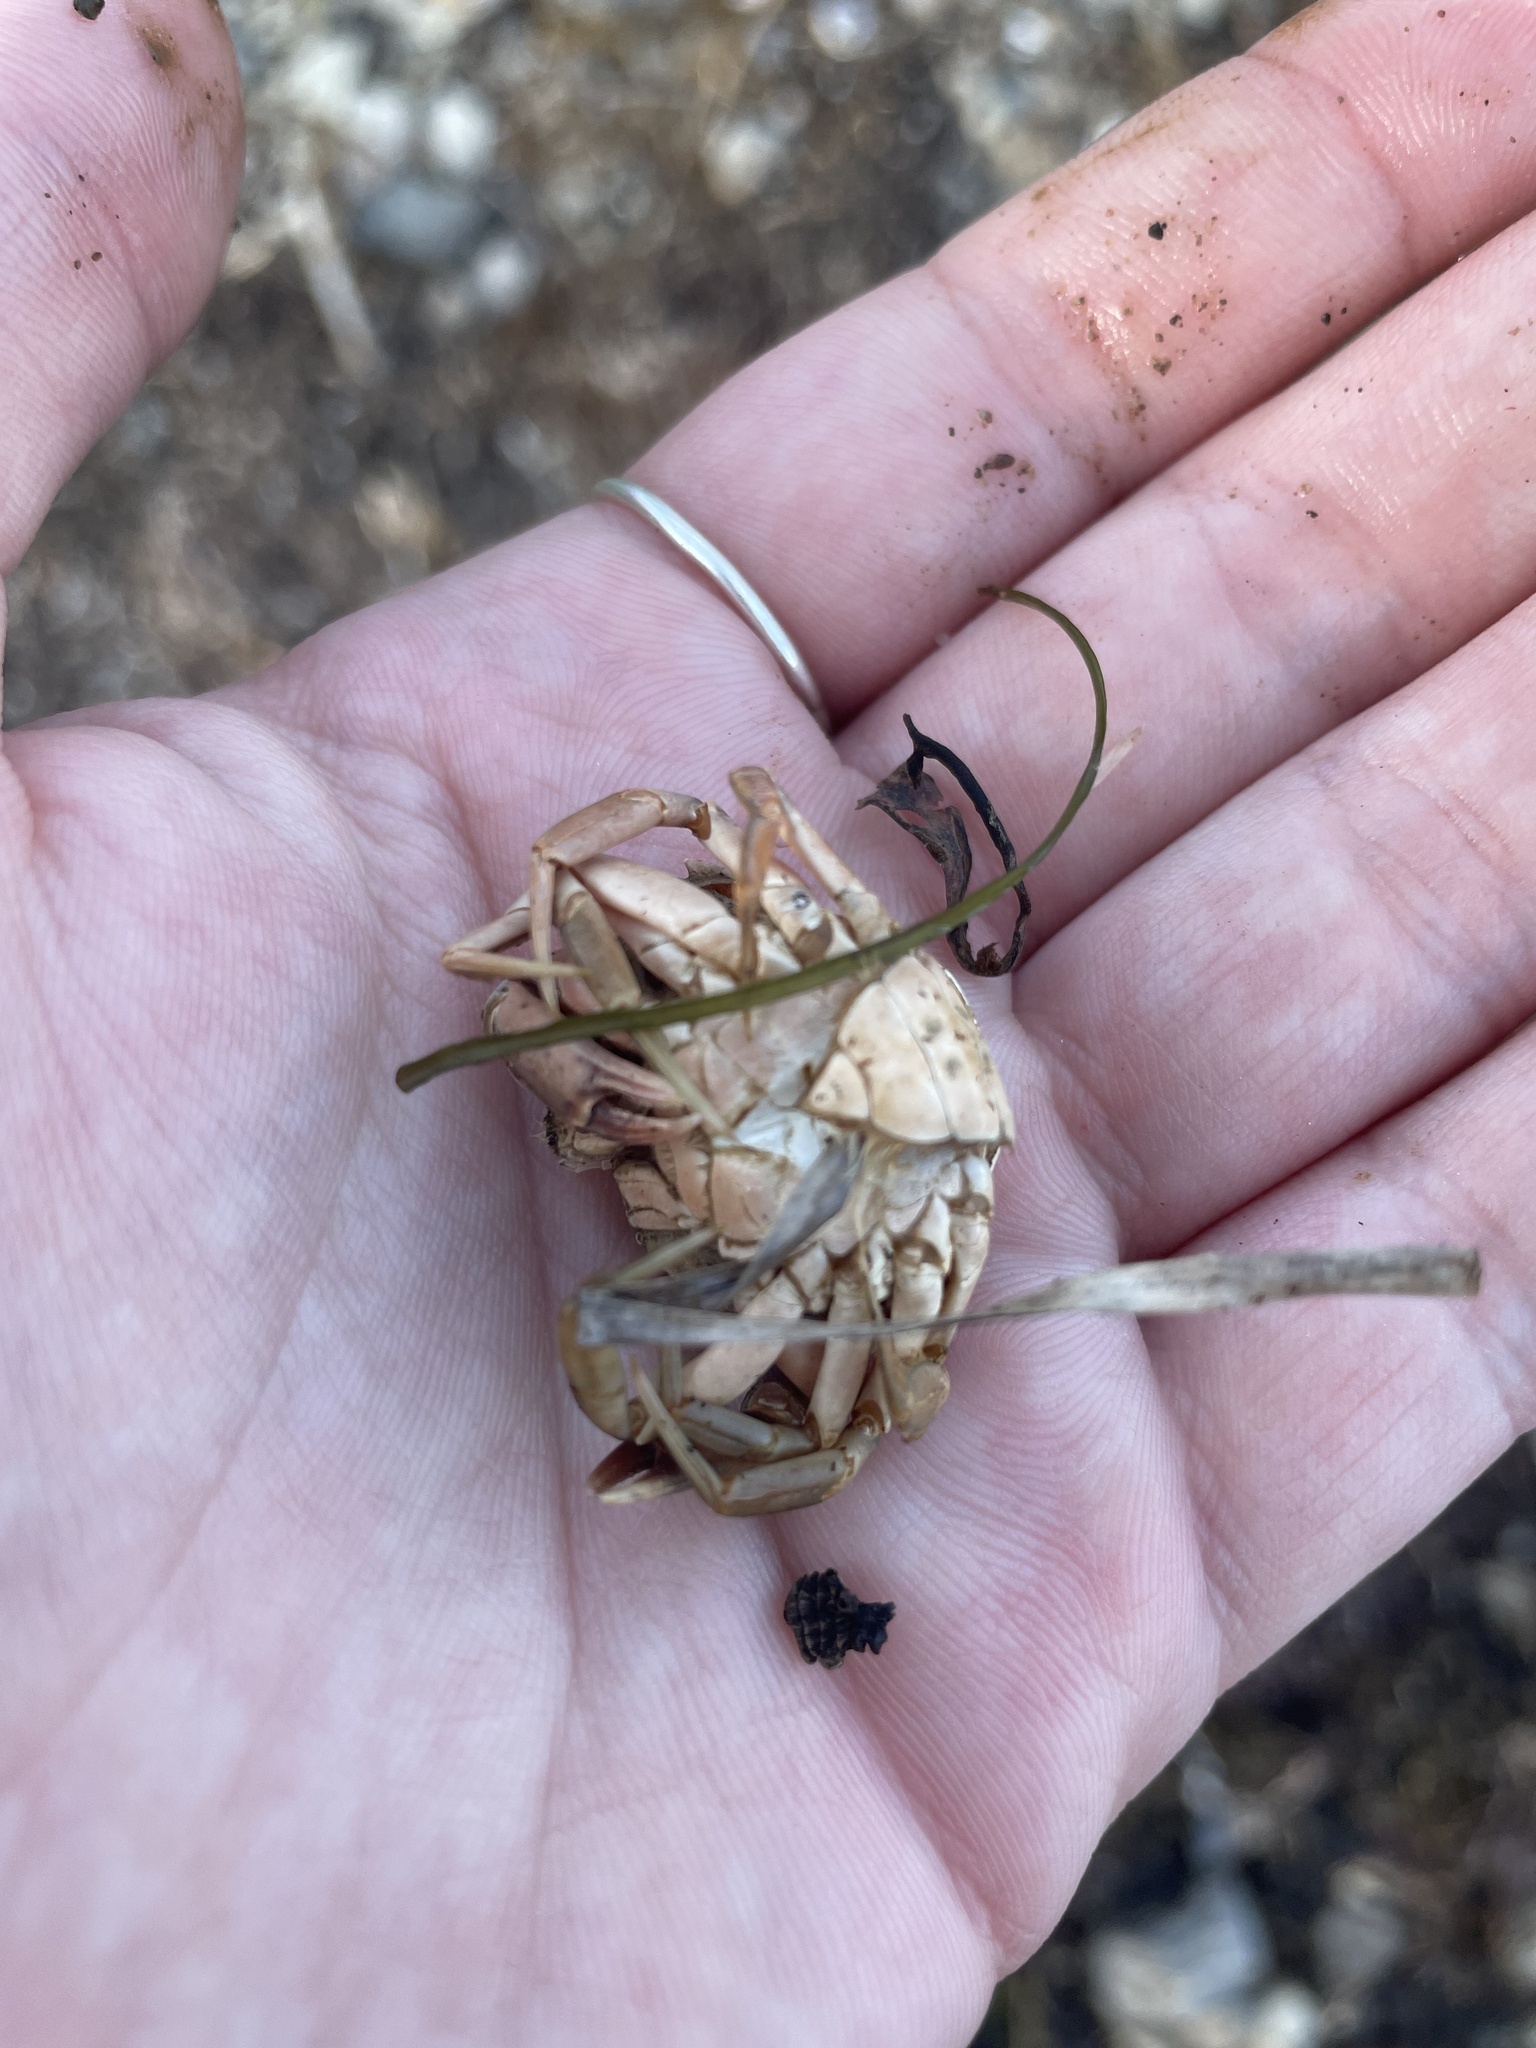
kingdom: Animalia
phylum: Arthropoda
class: Malacostraca
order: Decapoda
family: Carcinidae
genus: Carcinus
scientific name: Carcinus maenas
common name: European green crab
